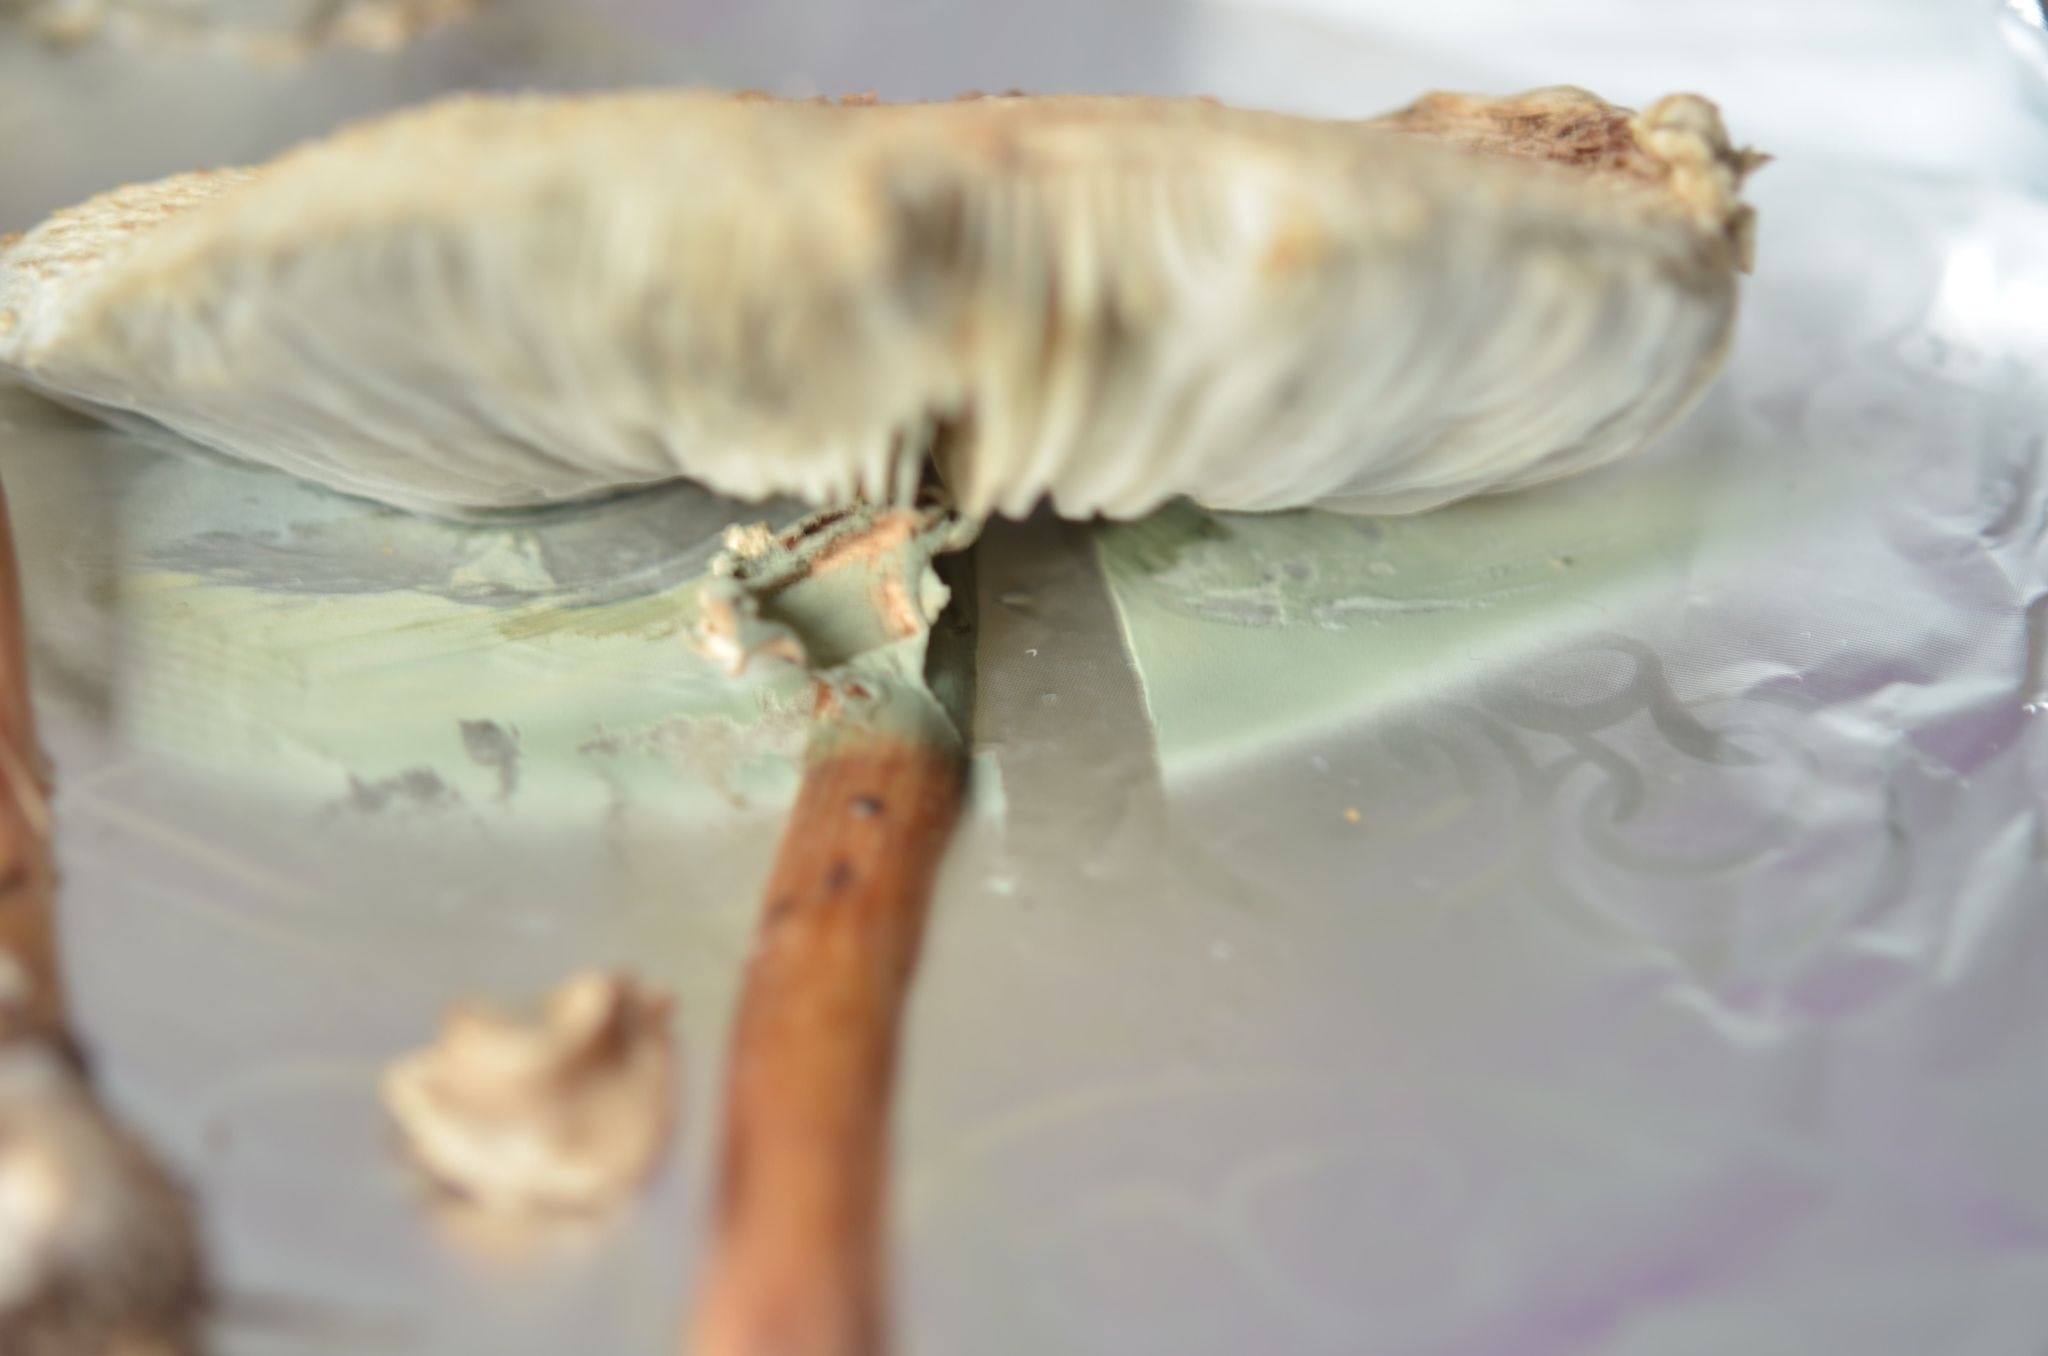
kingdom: Fungi
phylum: Basidiomycota
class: Agaricomycetes
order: Agaricales
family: Agaricaceae
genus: Chlorophyllum
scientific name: Chlorophyllum molybdites
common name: False parasol
